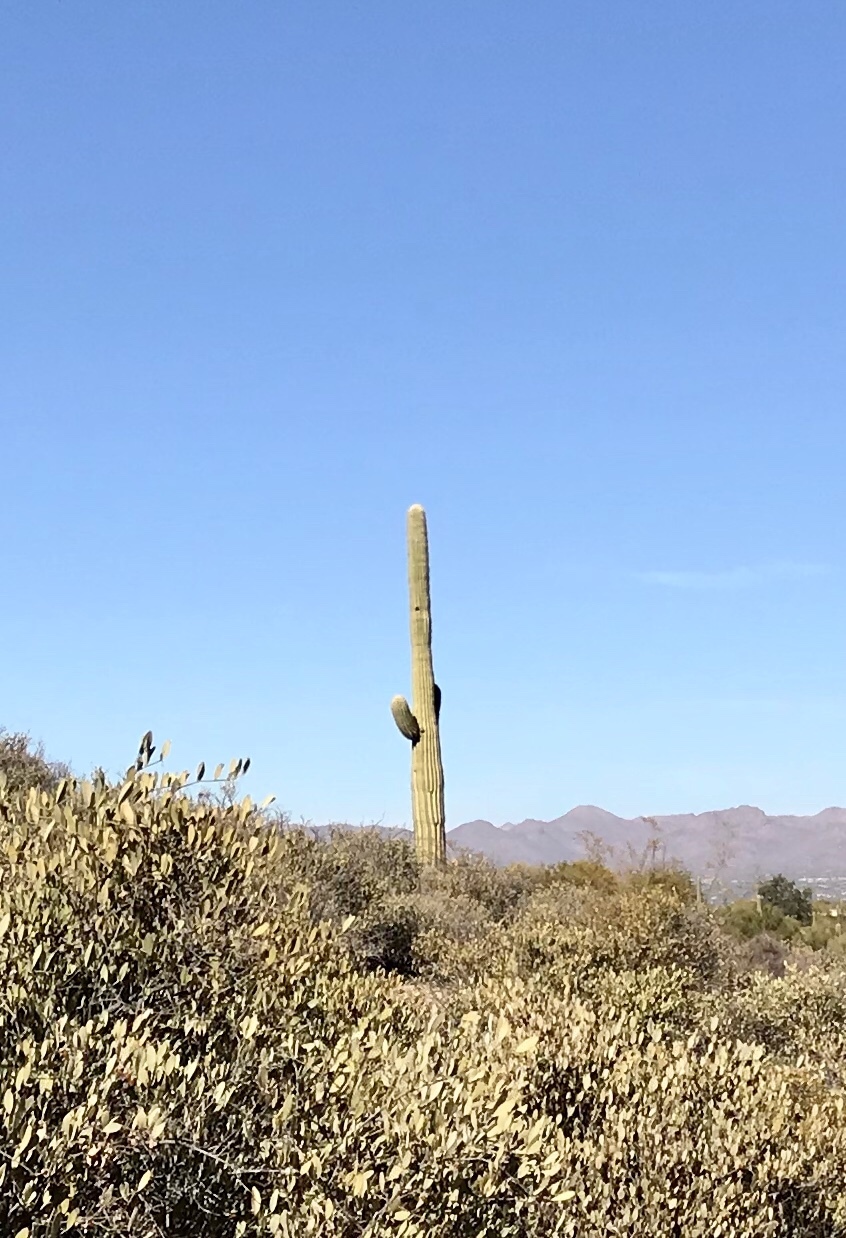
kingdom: Plantae
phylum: Tracheophyta
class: Magnoliopsida
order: Caryophyllales
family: Cactaceae
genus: Carnegiea
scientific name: Carnegiea gigantea
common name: Saguaro
